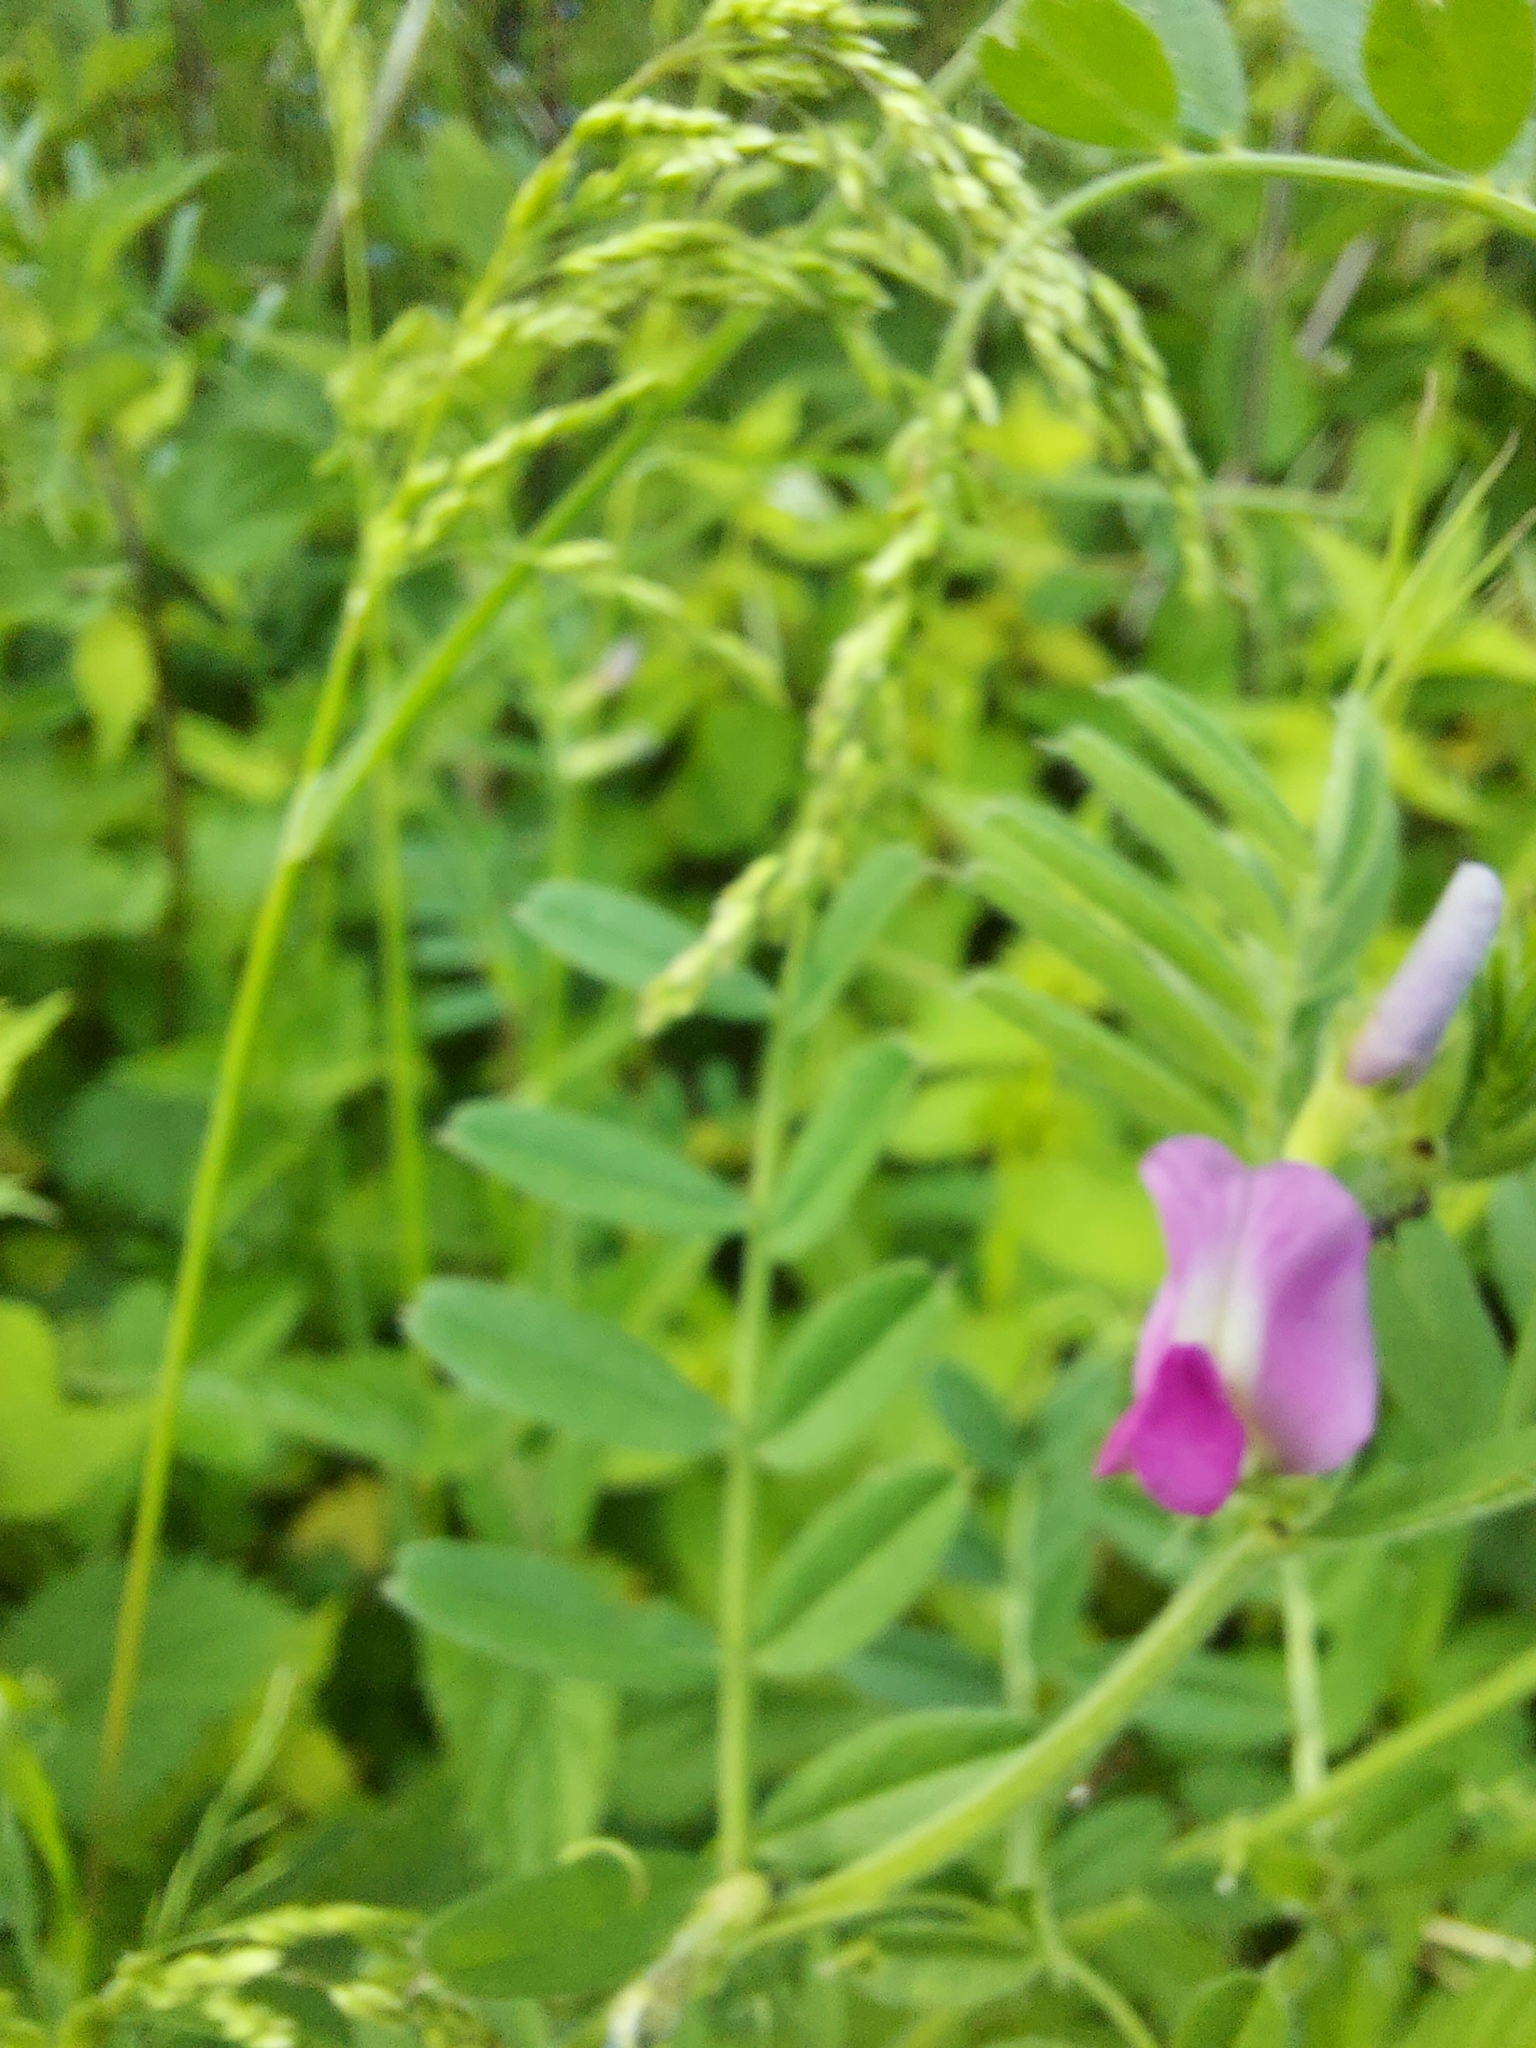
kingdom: Plantae
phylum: Tracheophyta
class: Magnoliopsida
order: Fabales
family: Fabaceae
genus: Vicia
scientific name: Vicia sativa
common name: Garden vetch
